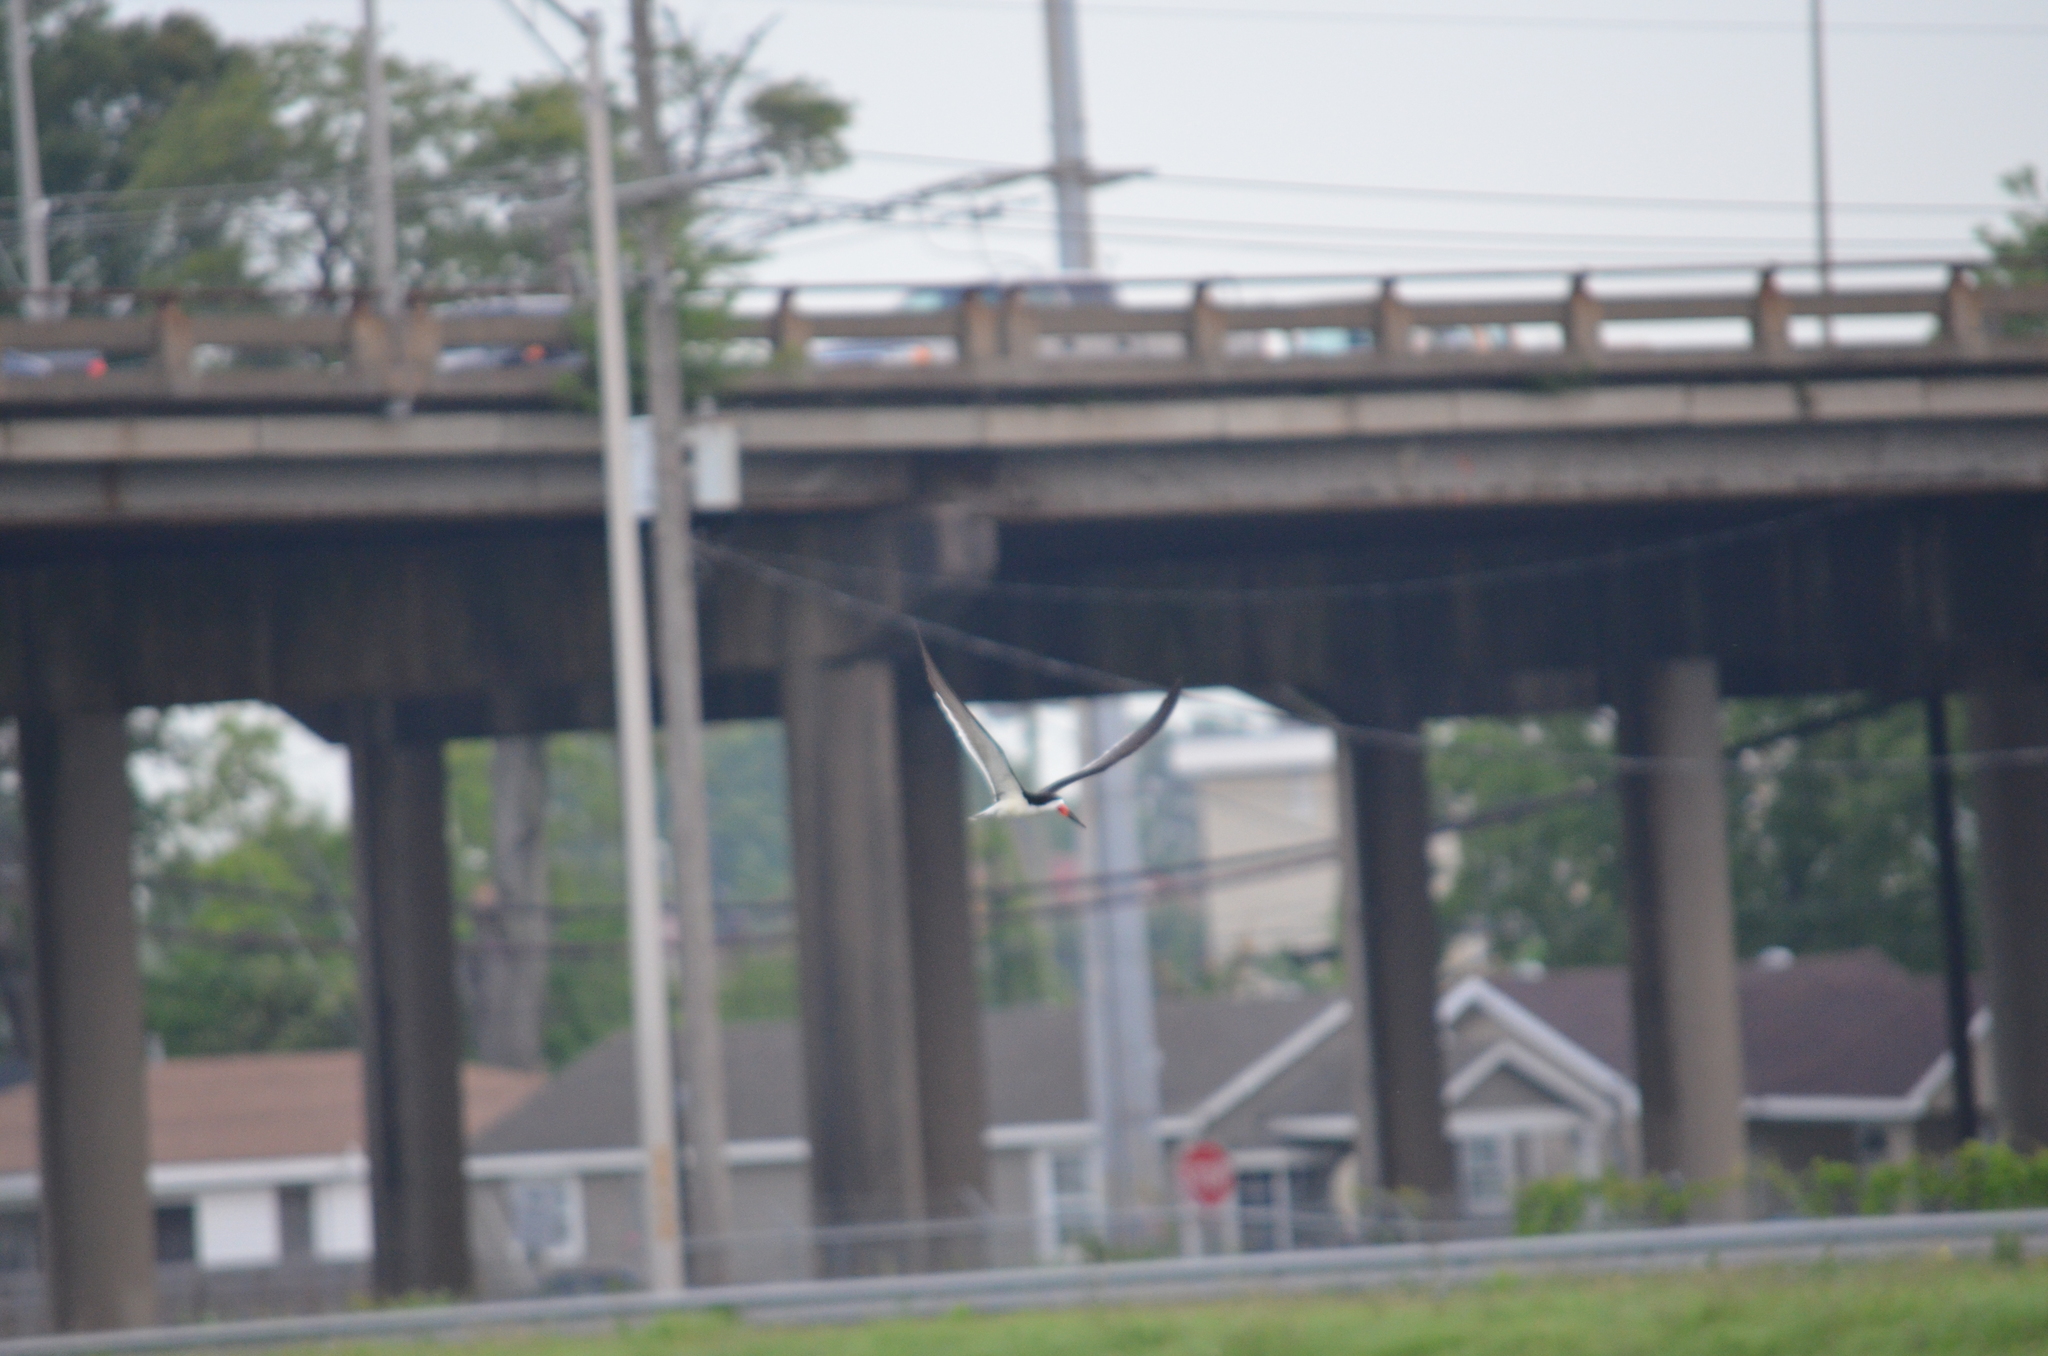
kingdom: Animalia
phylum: Chordata
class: Aves
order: Charadriiformes
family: Laridae
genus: Rynchops
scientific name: Rynchops niger
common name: Black skimmer
